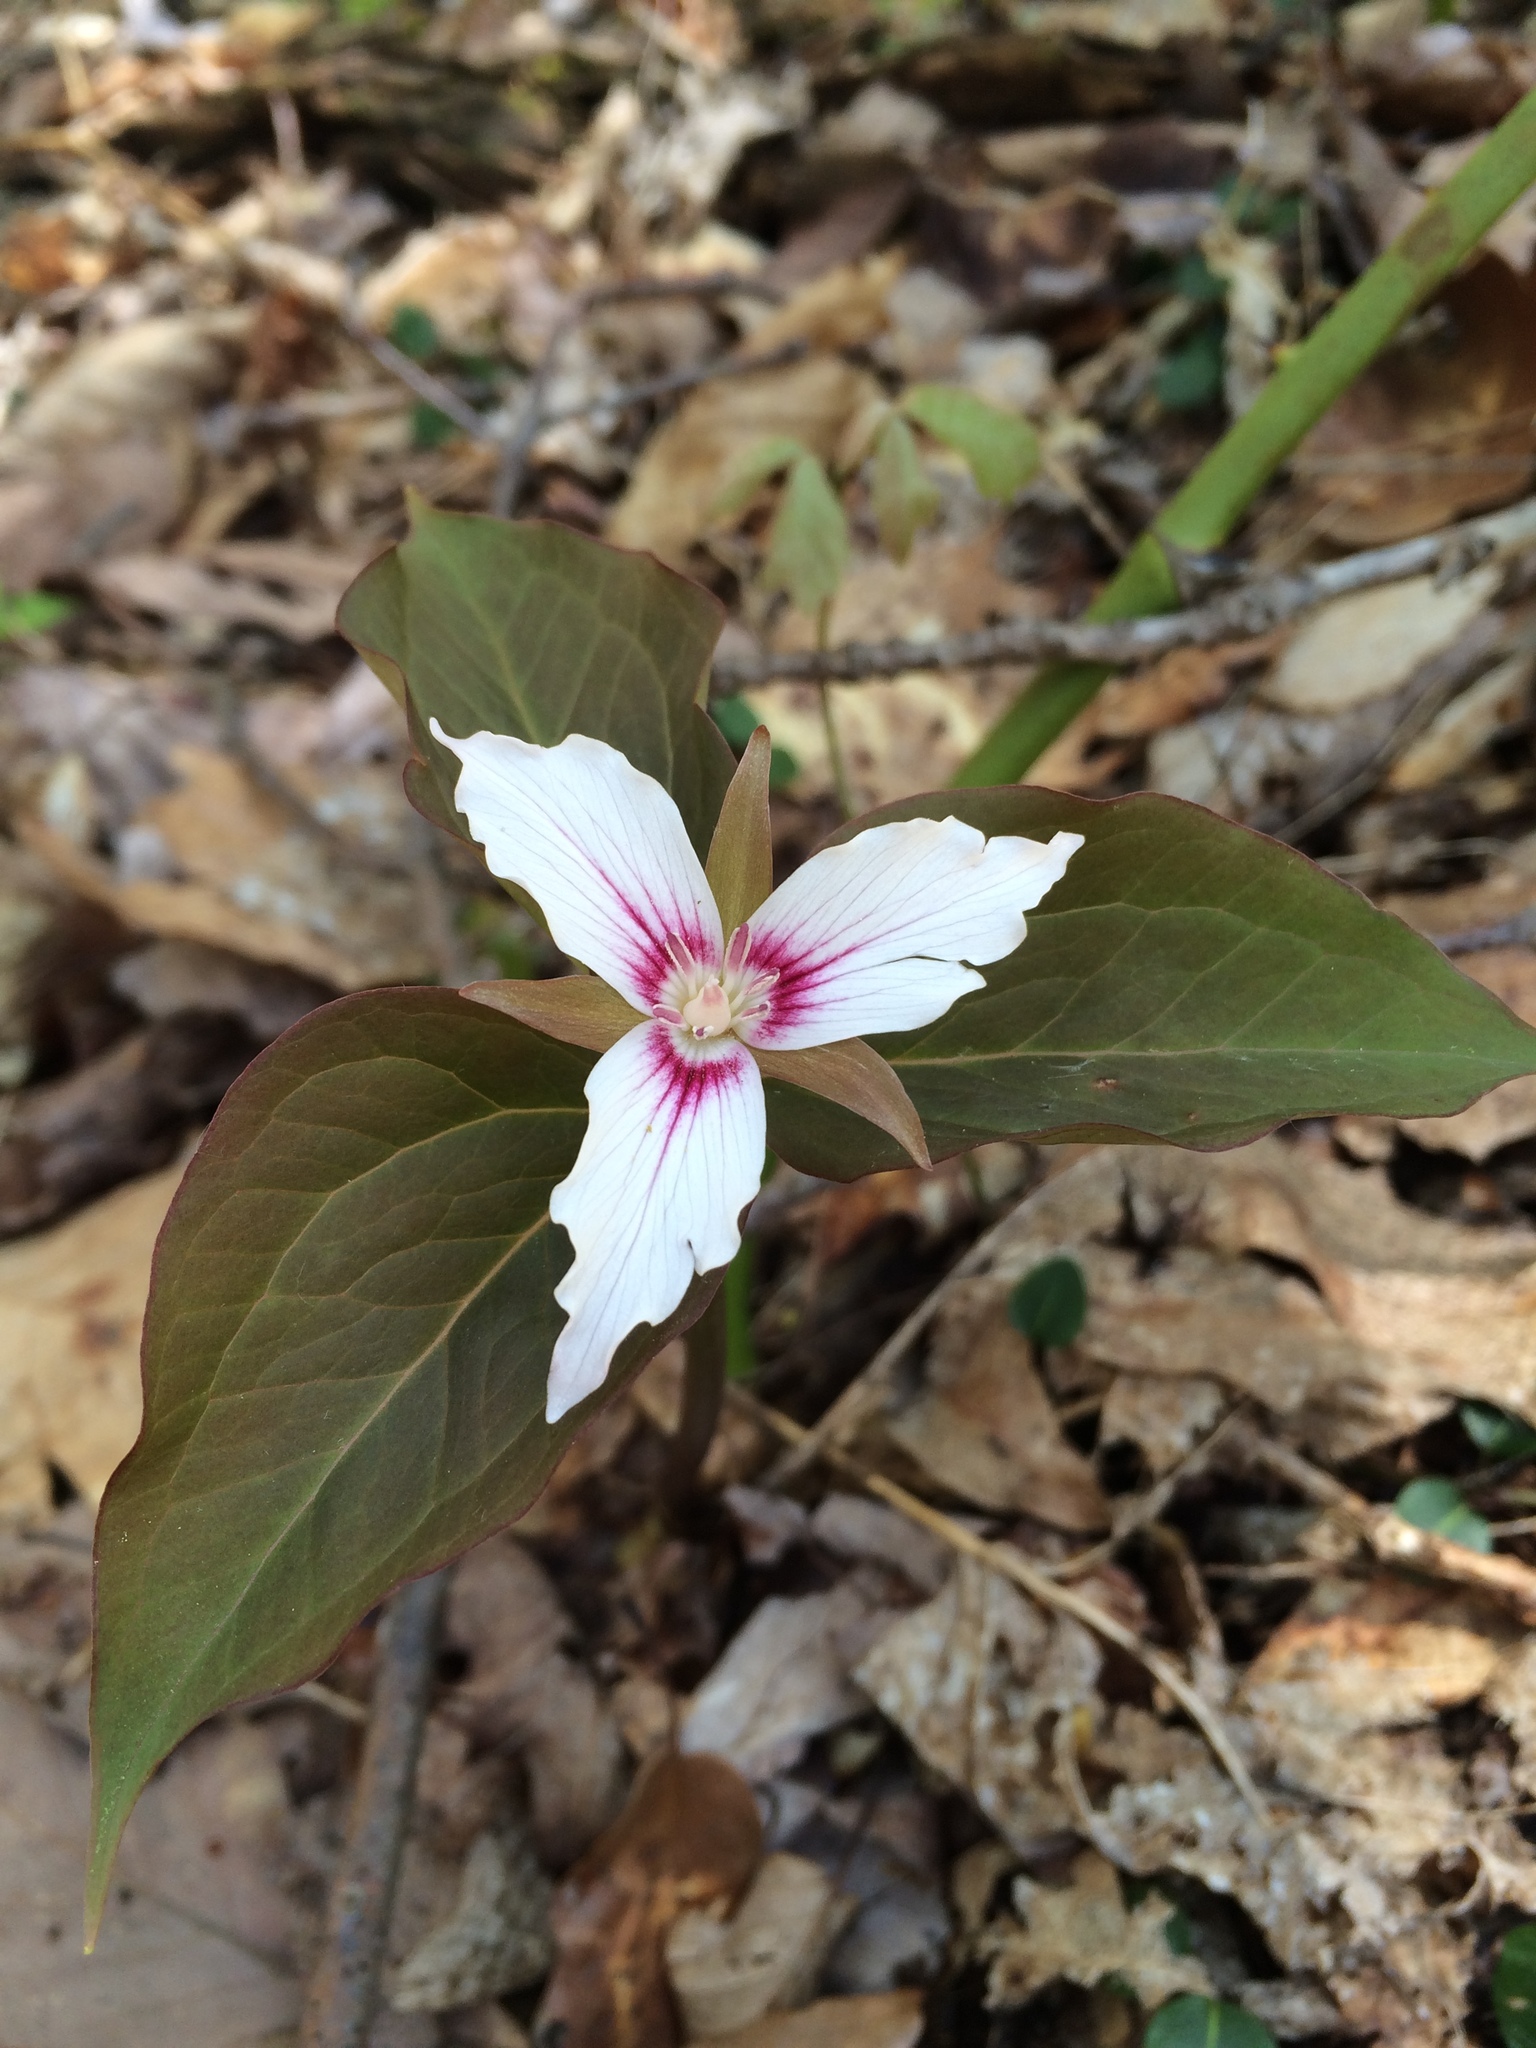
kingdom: Plantae
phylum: Tracheophyta
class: Liliopsida
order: Liliales
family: Melanthiaceae
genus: Trillium
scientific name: Trillium undulatum
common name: Paint trillium
